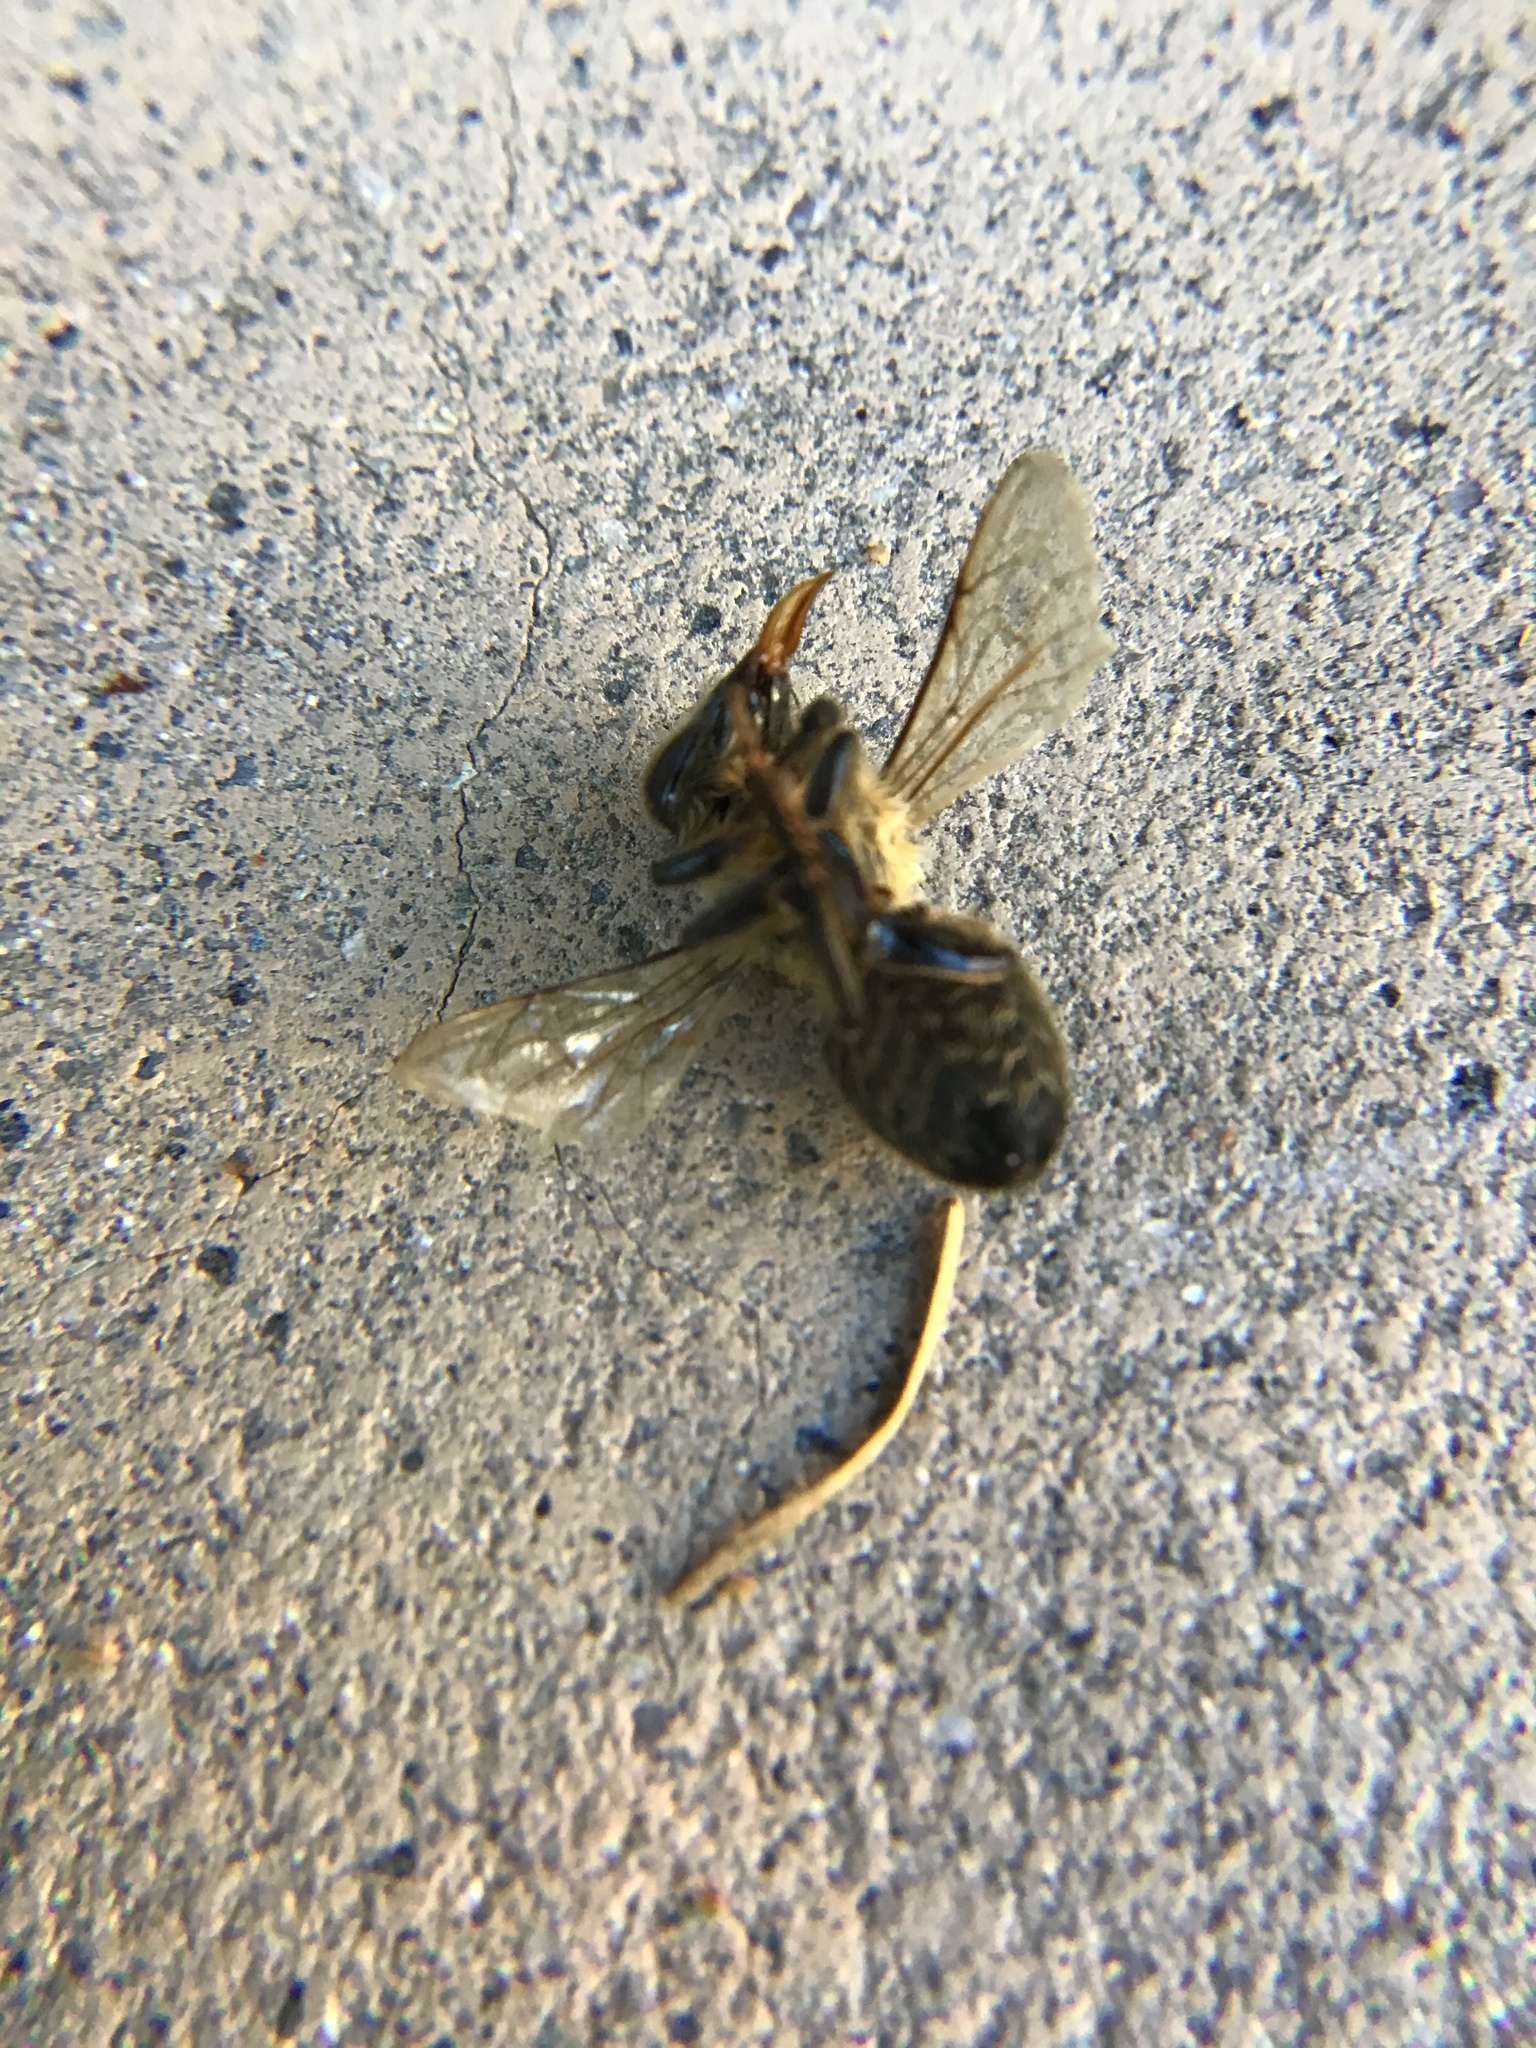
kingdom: Animalia
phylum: Arthropoda
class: Insecta
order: Hymenoptera
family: Apidae
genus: Apis
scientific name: Apis mellifera
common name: Honey bee
